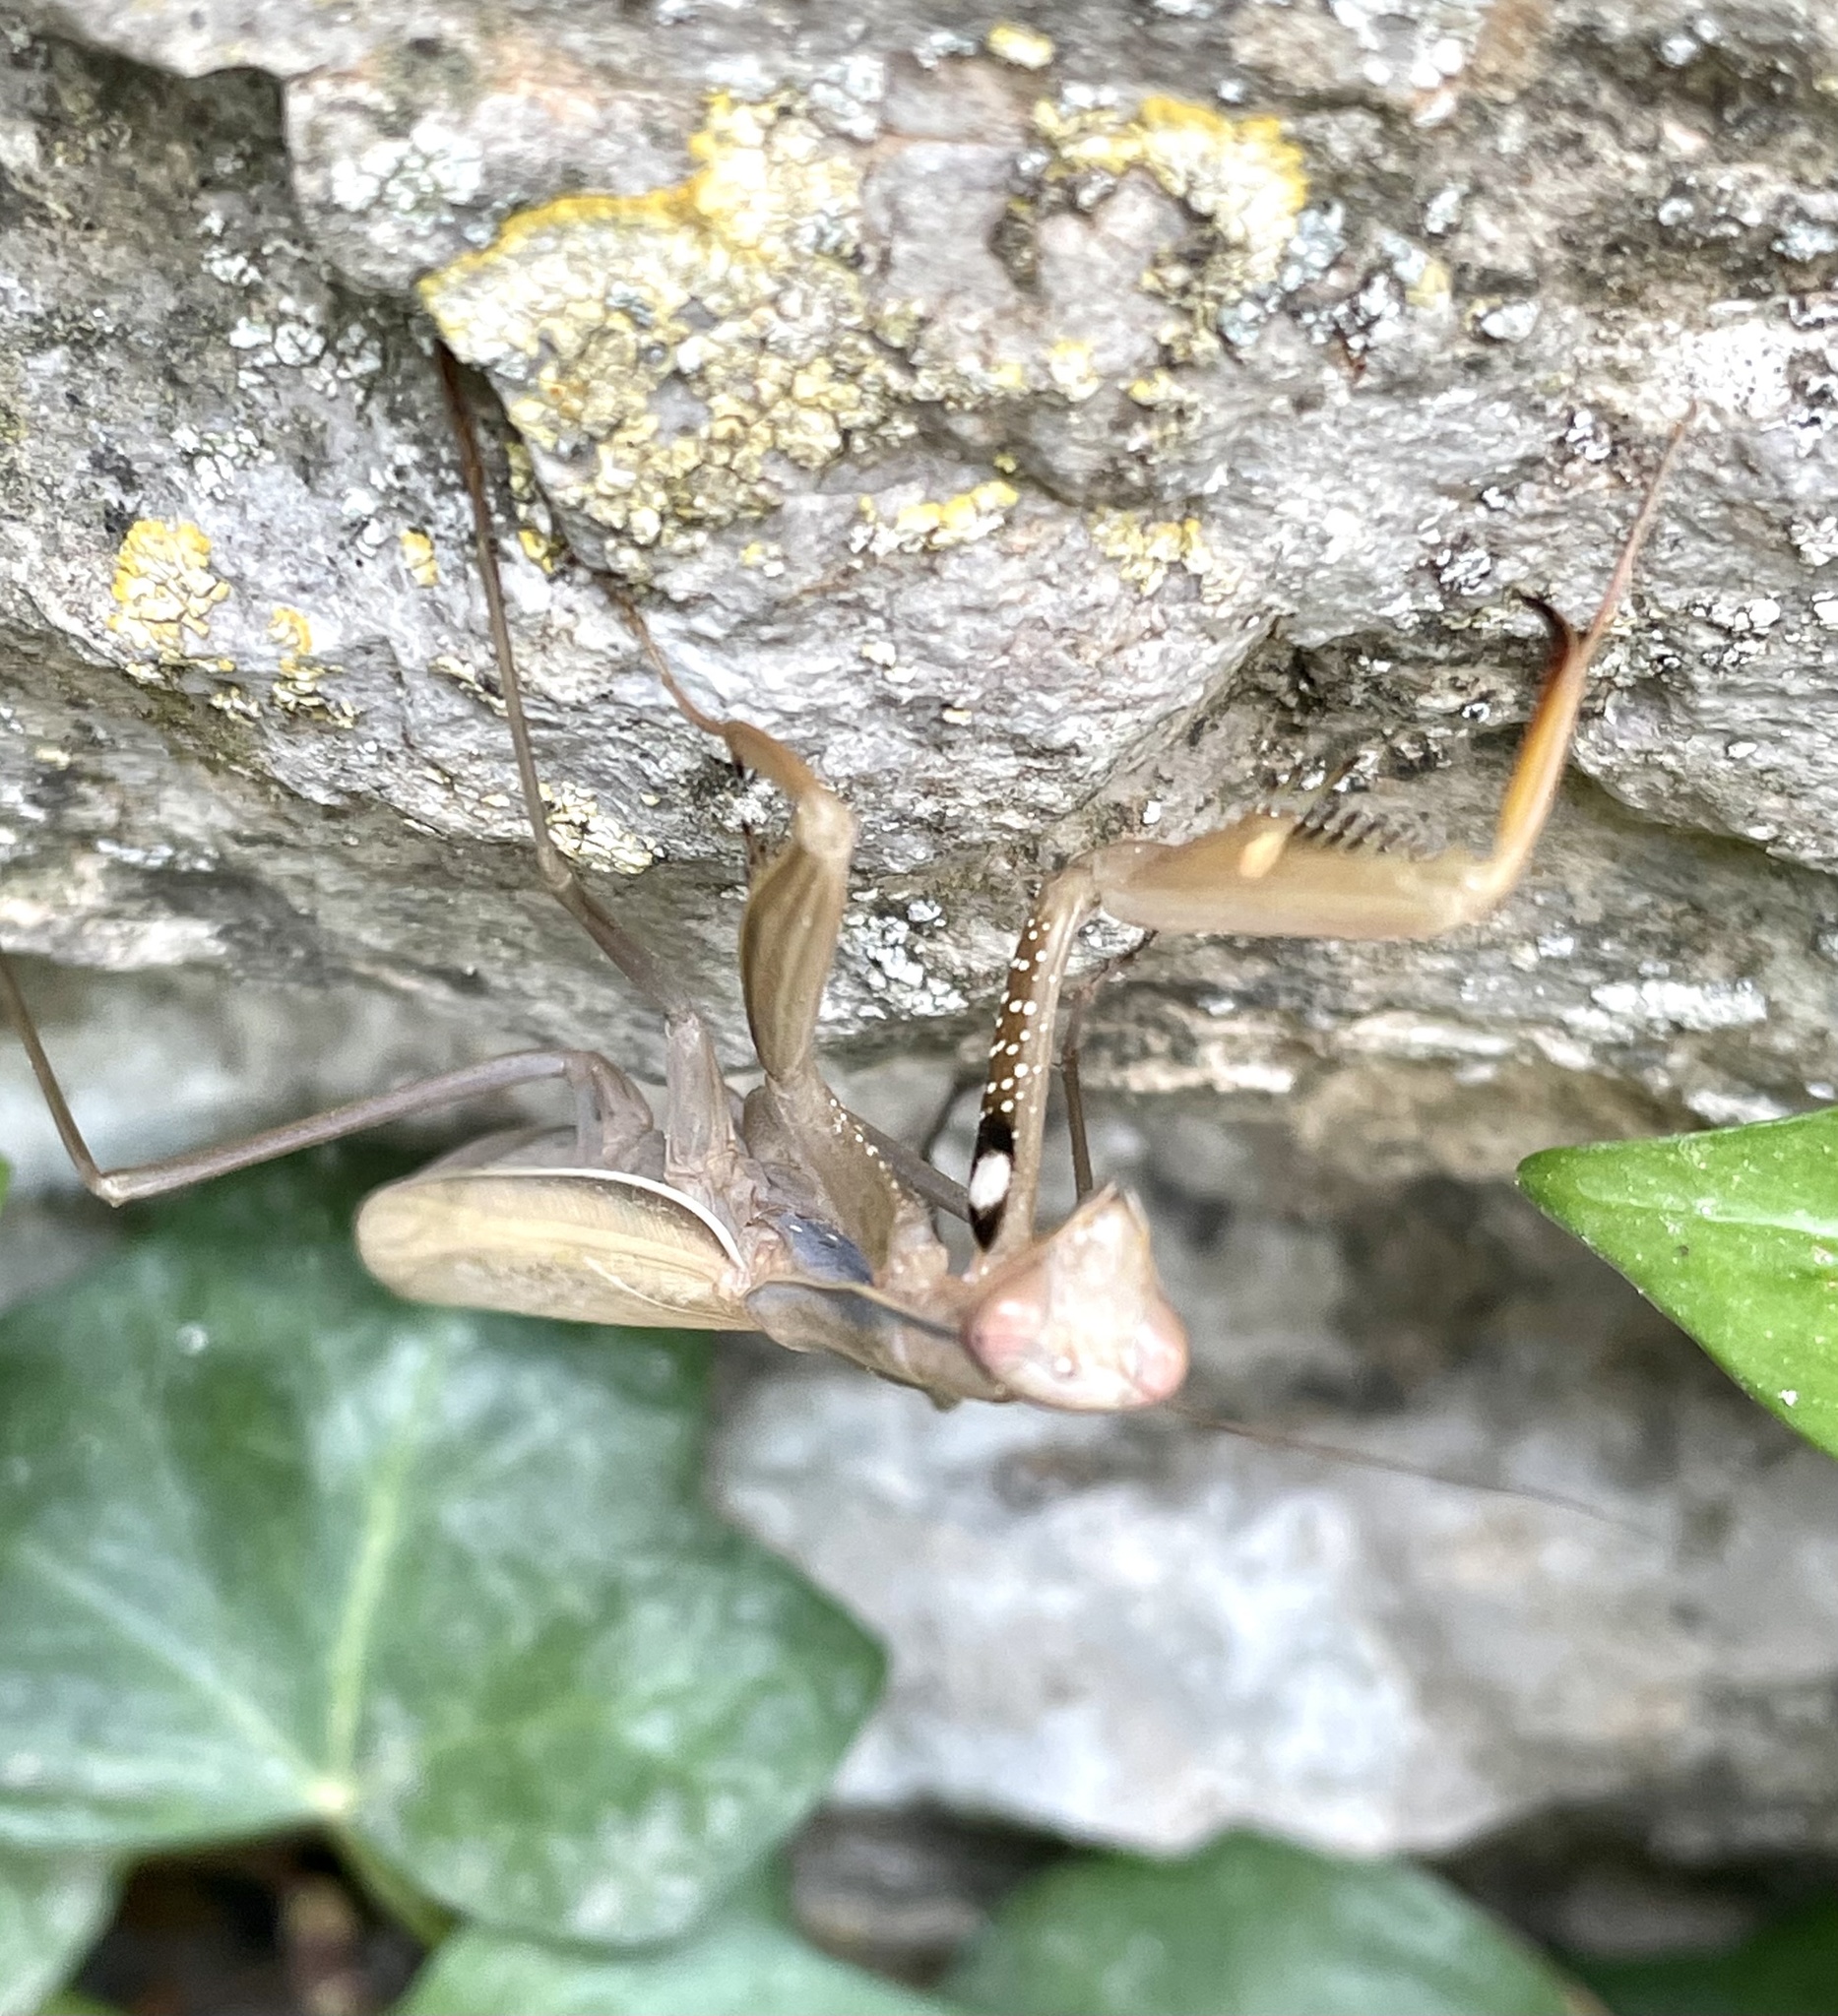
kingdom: Animalia
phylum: Arthropoda
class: Insecta
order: Mantodea
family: Mantidae
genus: Mantis
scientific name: Mantis religiosa
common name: Praying mantis
